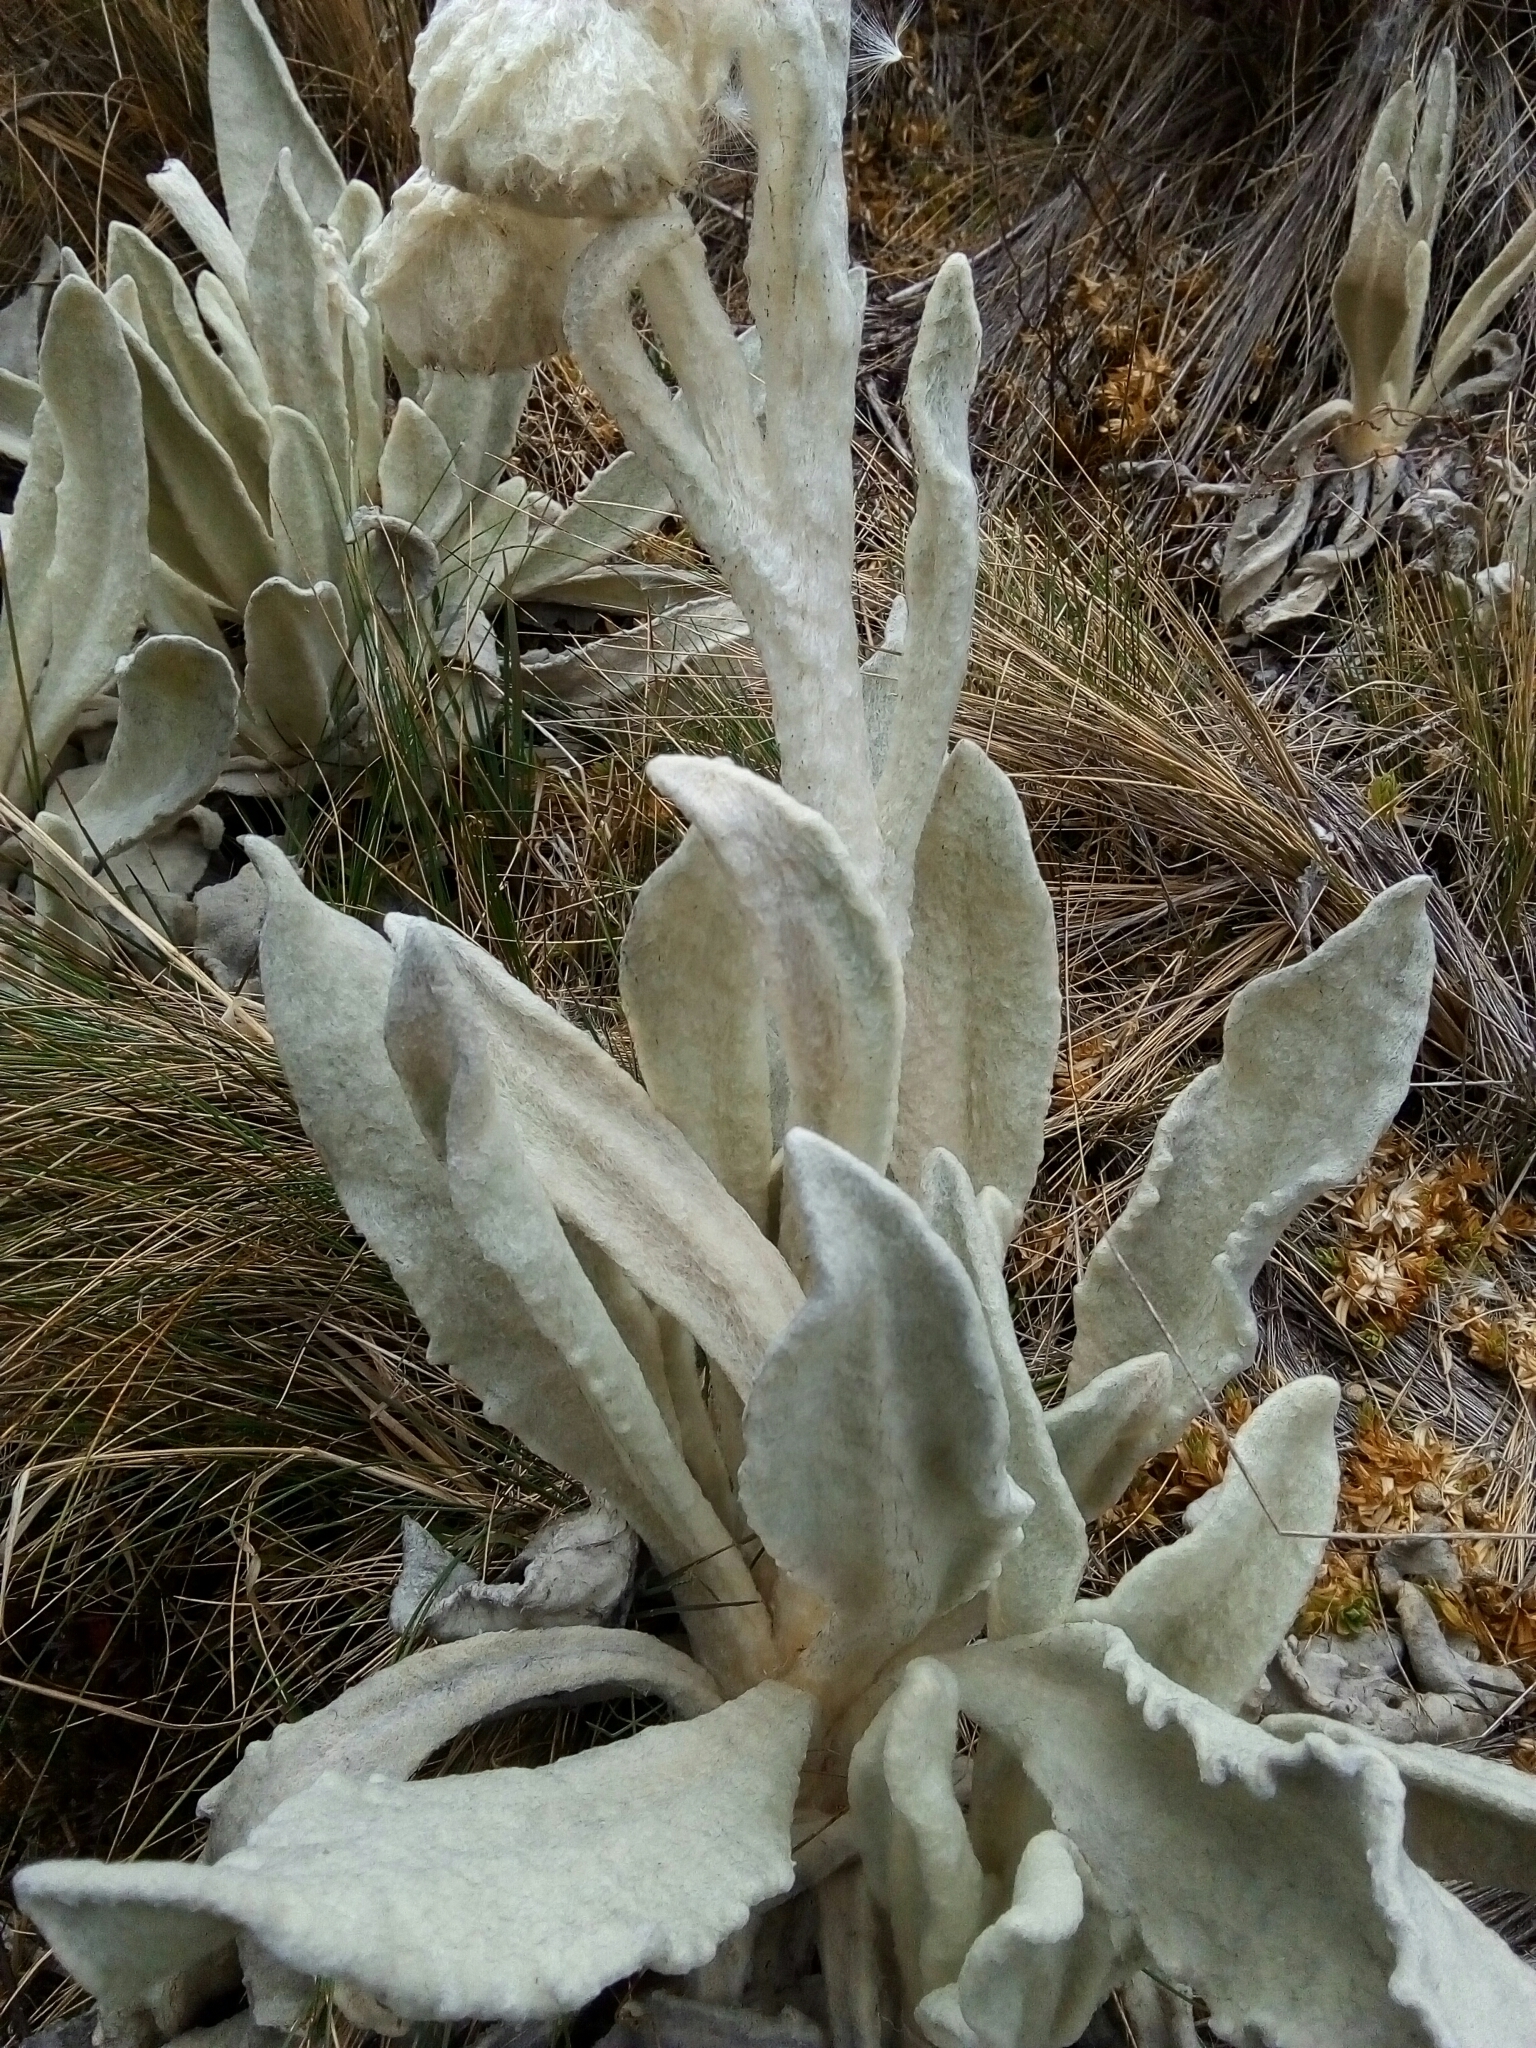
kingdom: Plantae
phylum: Tracheophyta
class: Magnoliopsida
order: Asterales
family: Asteraceae
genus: Culcitium
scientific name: Culcitium canescens
